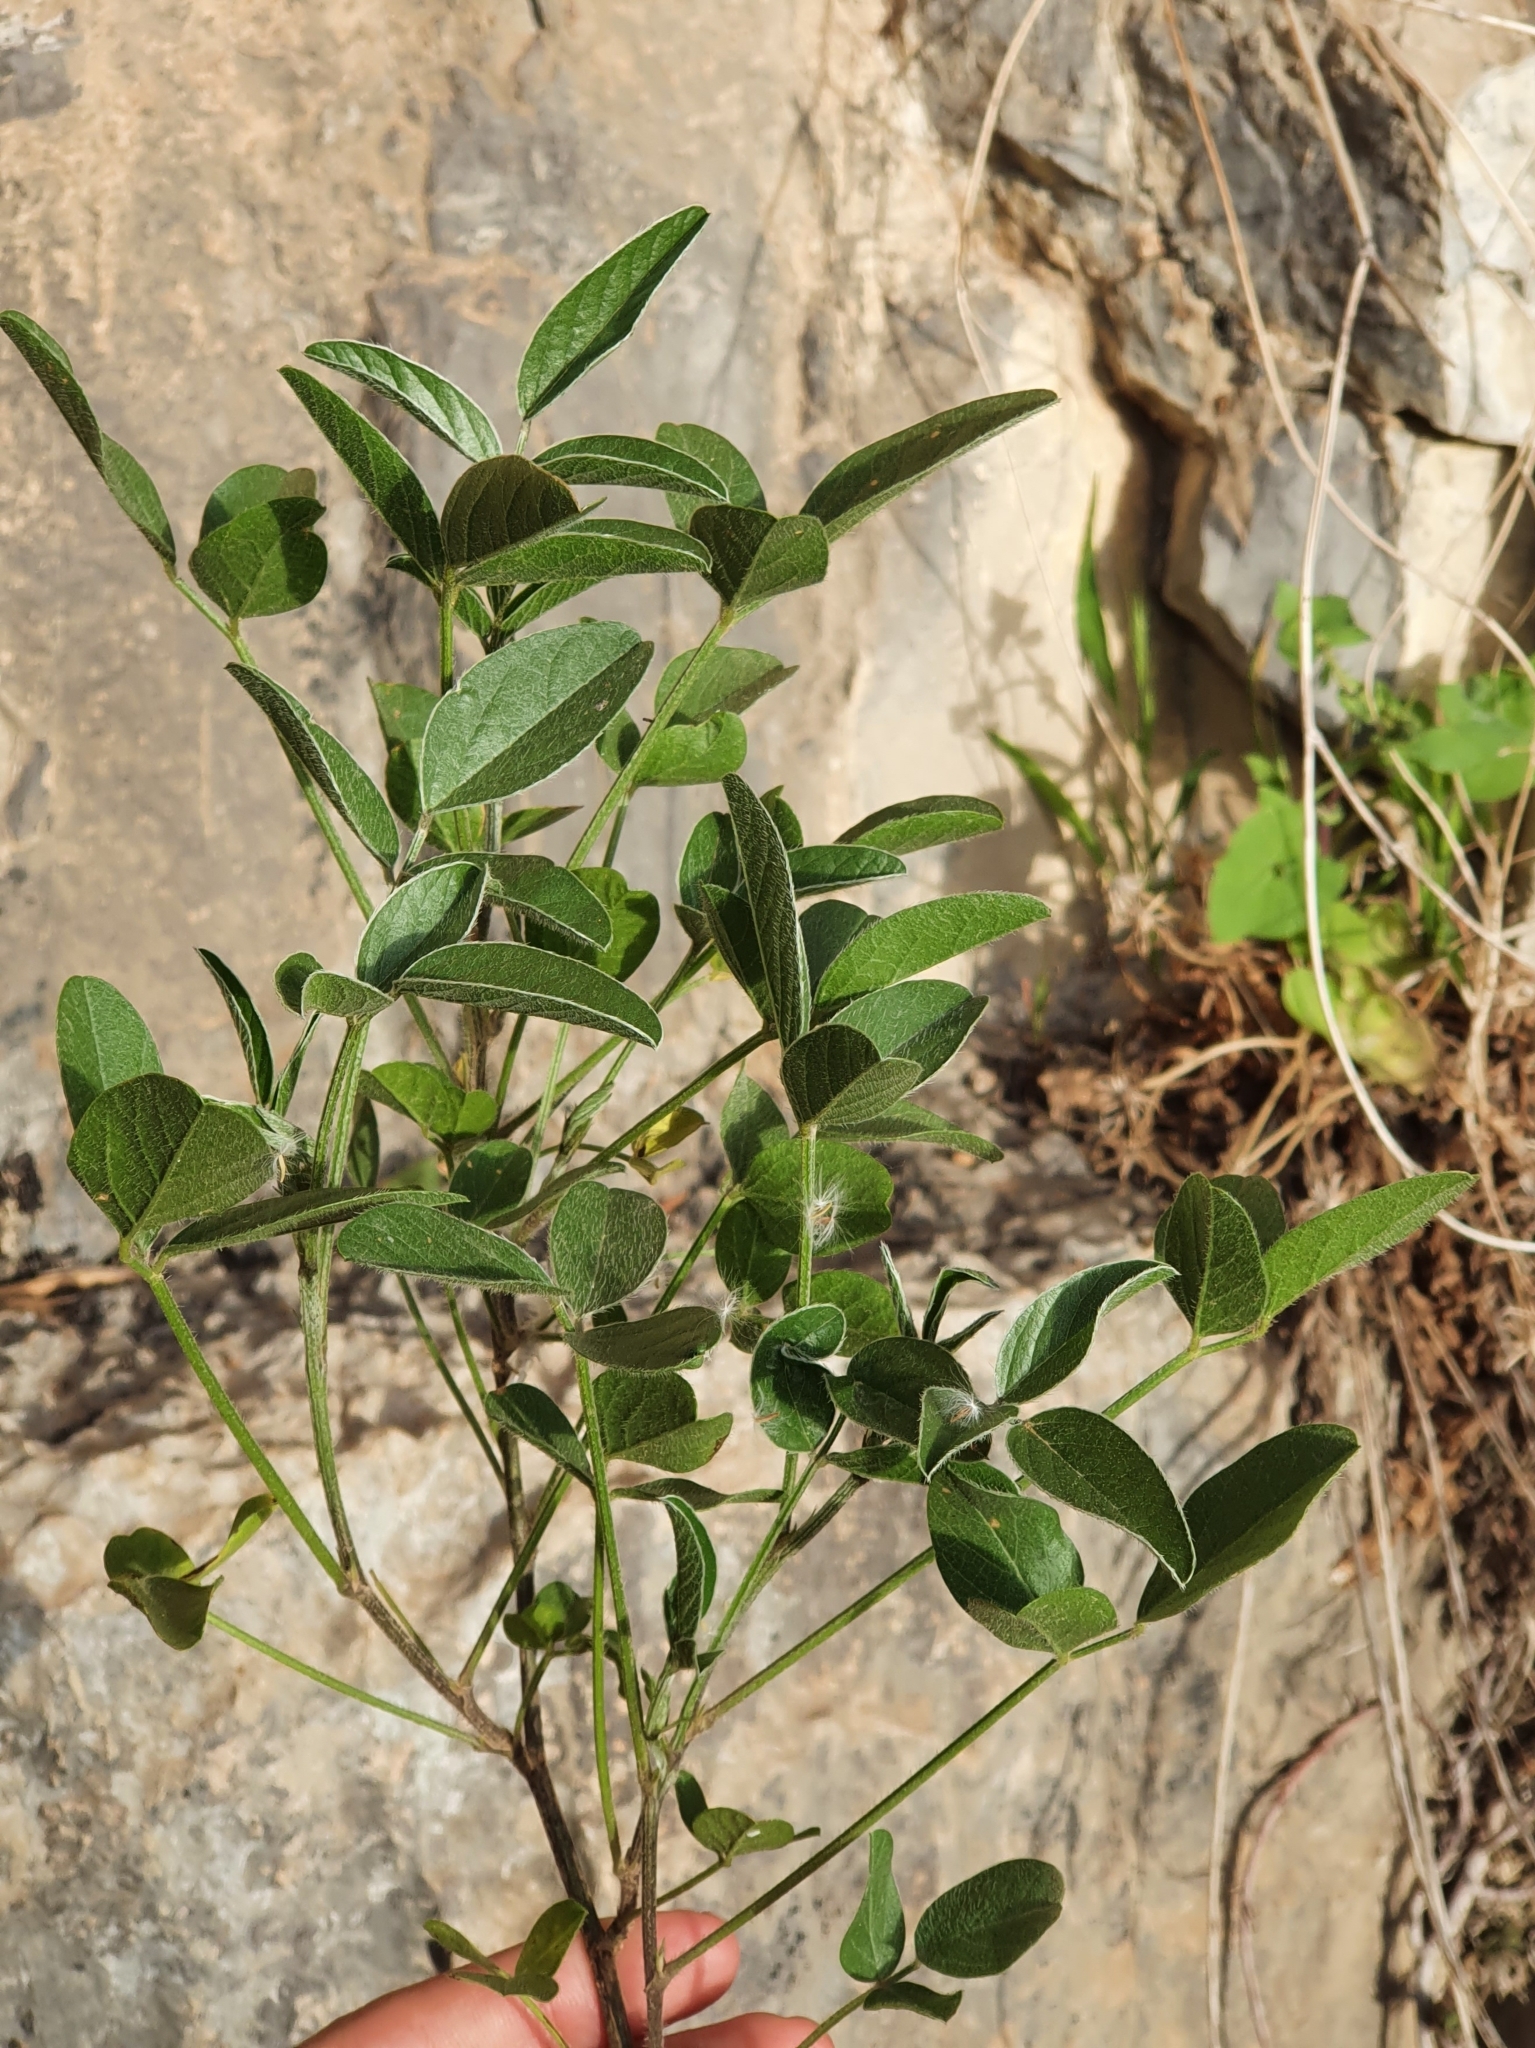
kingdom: Plantae
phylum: Tracheophyta
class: Magnoliopsida
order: Fabales
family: Fabaceae
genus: Bituminaria
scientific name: Bituminaria bituminosa
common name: Arabian pea
